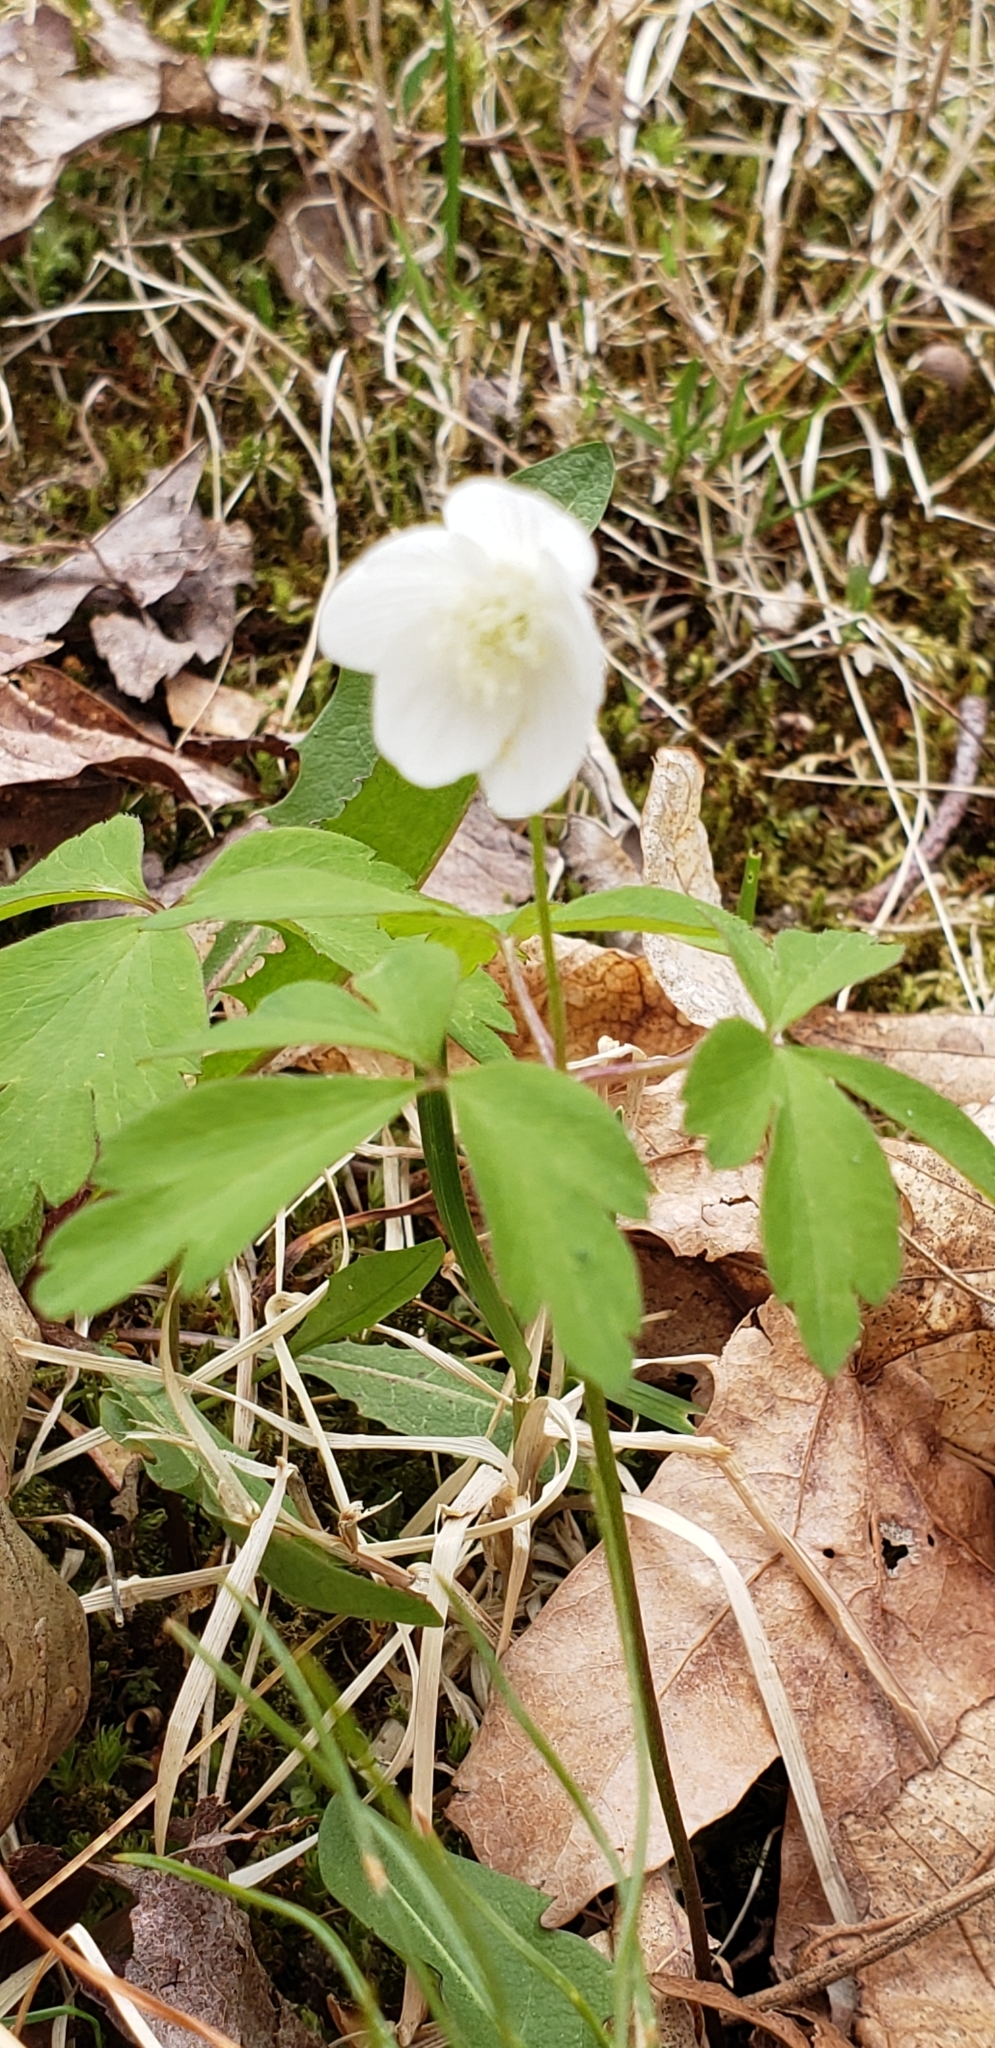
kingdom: Plantae
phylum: Tracheophyta
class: Magnoliopsida
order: Ranunculales
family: Ranunculaceae
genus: Anemone
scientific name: Anemone quinquefolia
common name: Wood anemone
